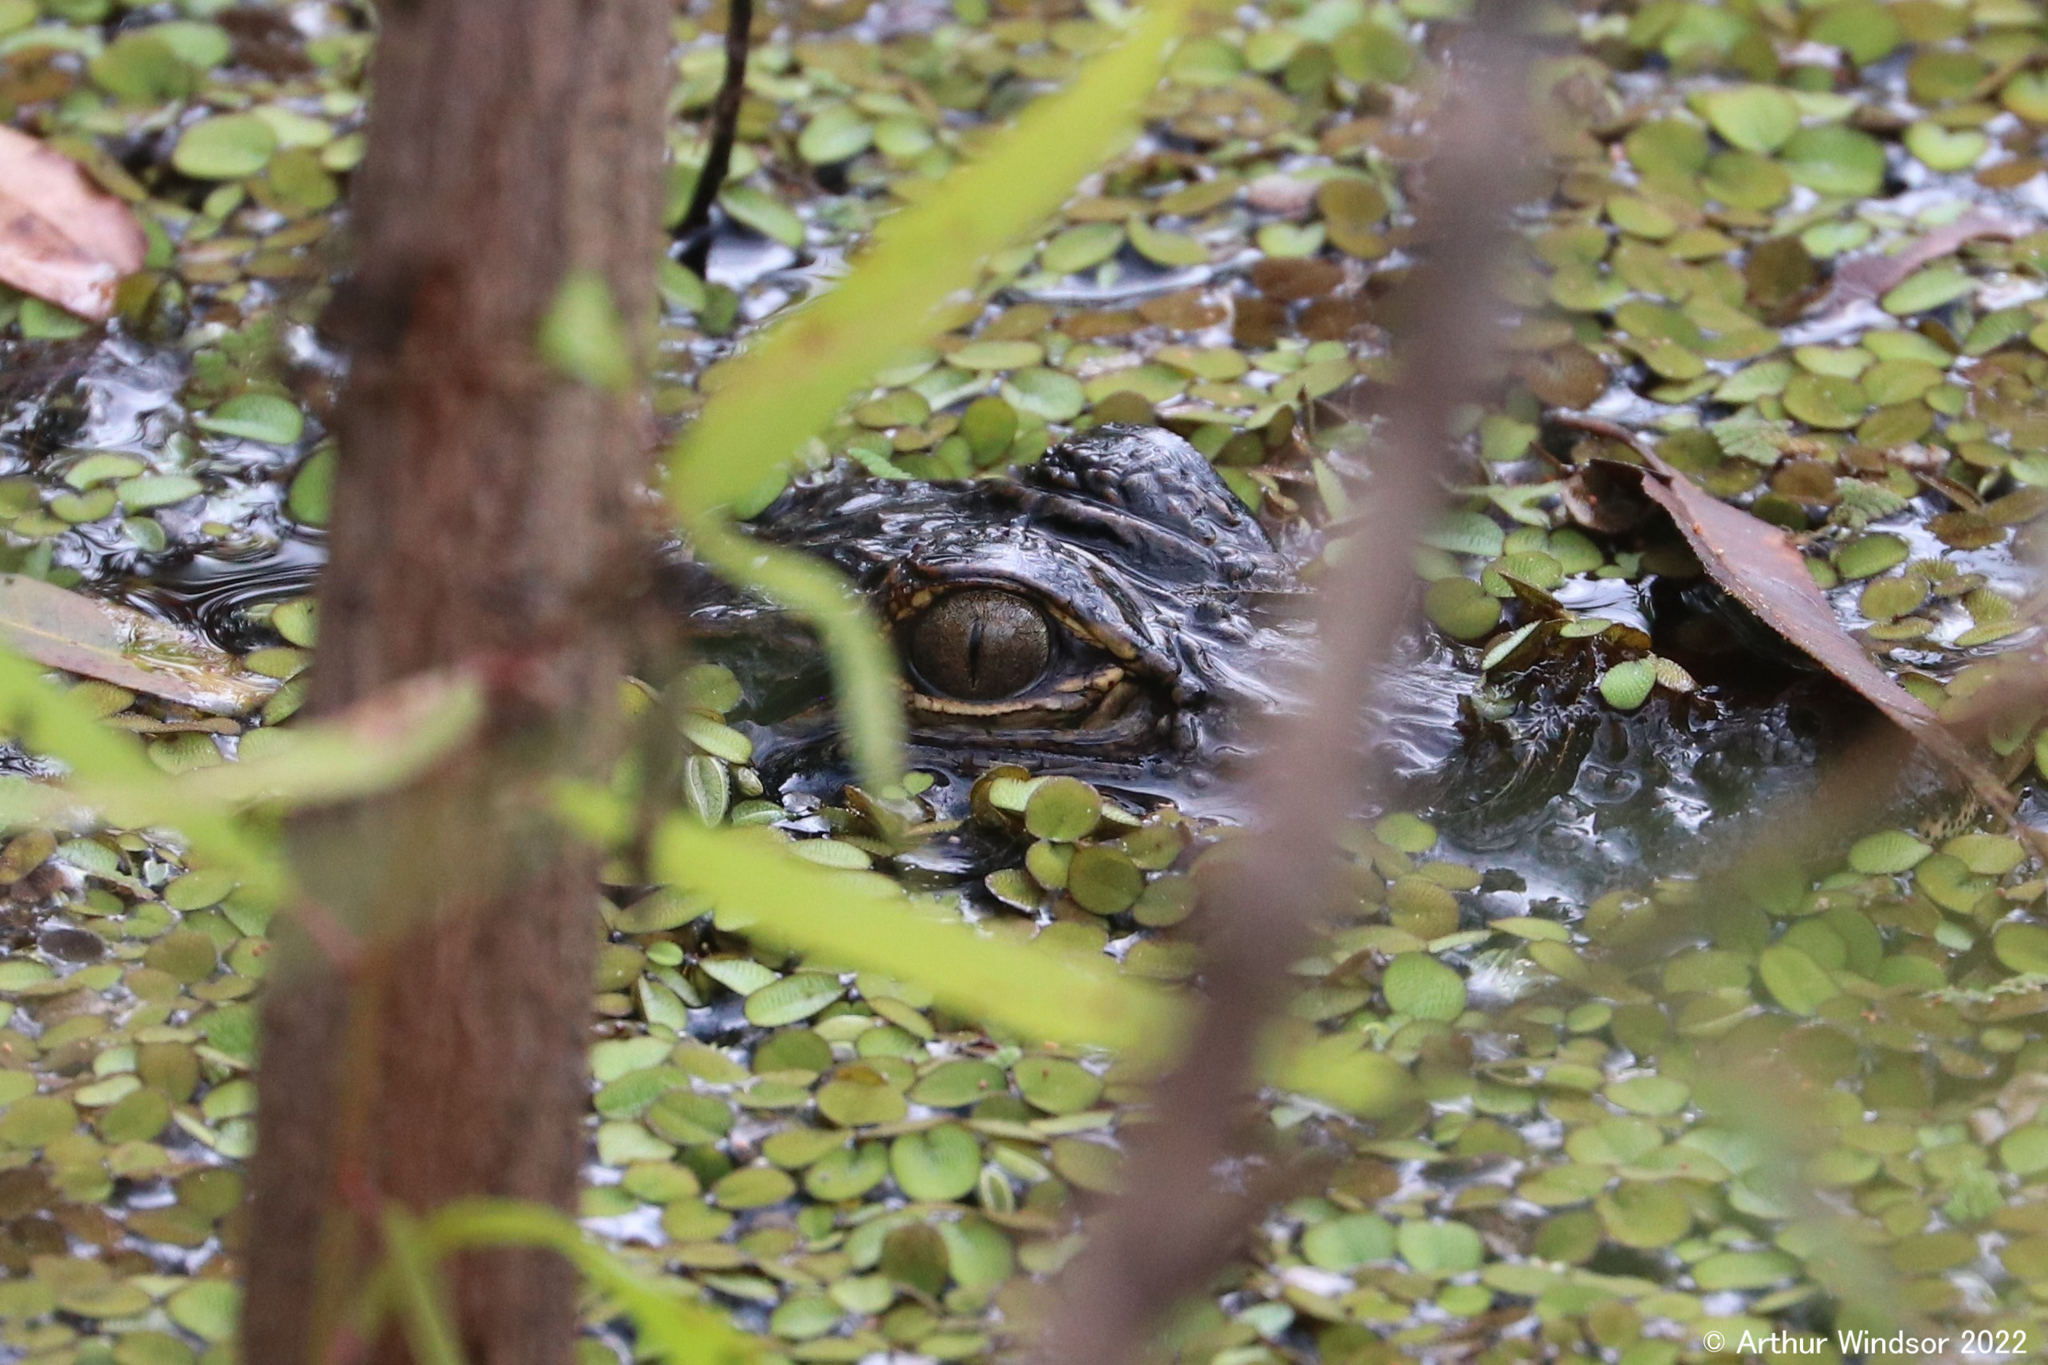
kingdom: Animalia
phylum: Chordata
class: Crocodylia
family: Alligatoridae
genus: Alligator
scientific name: Alligator mississippiensis
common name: American alligator
